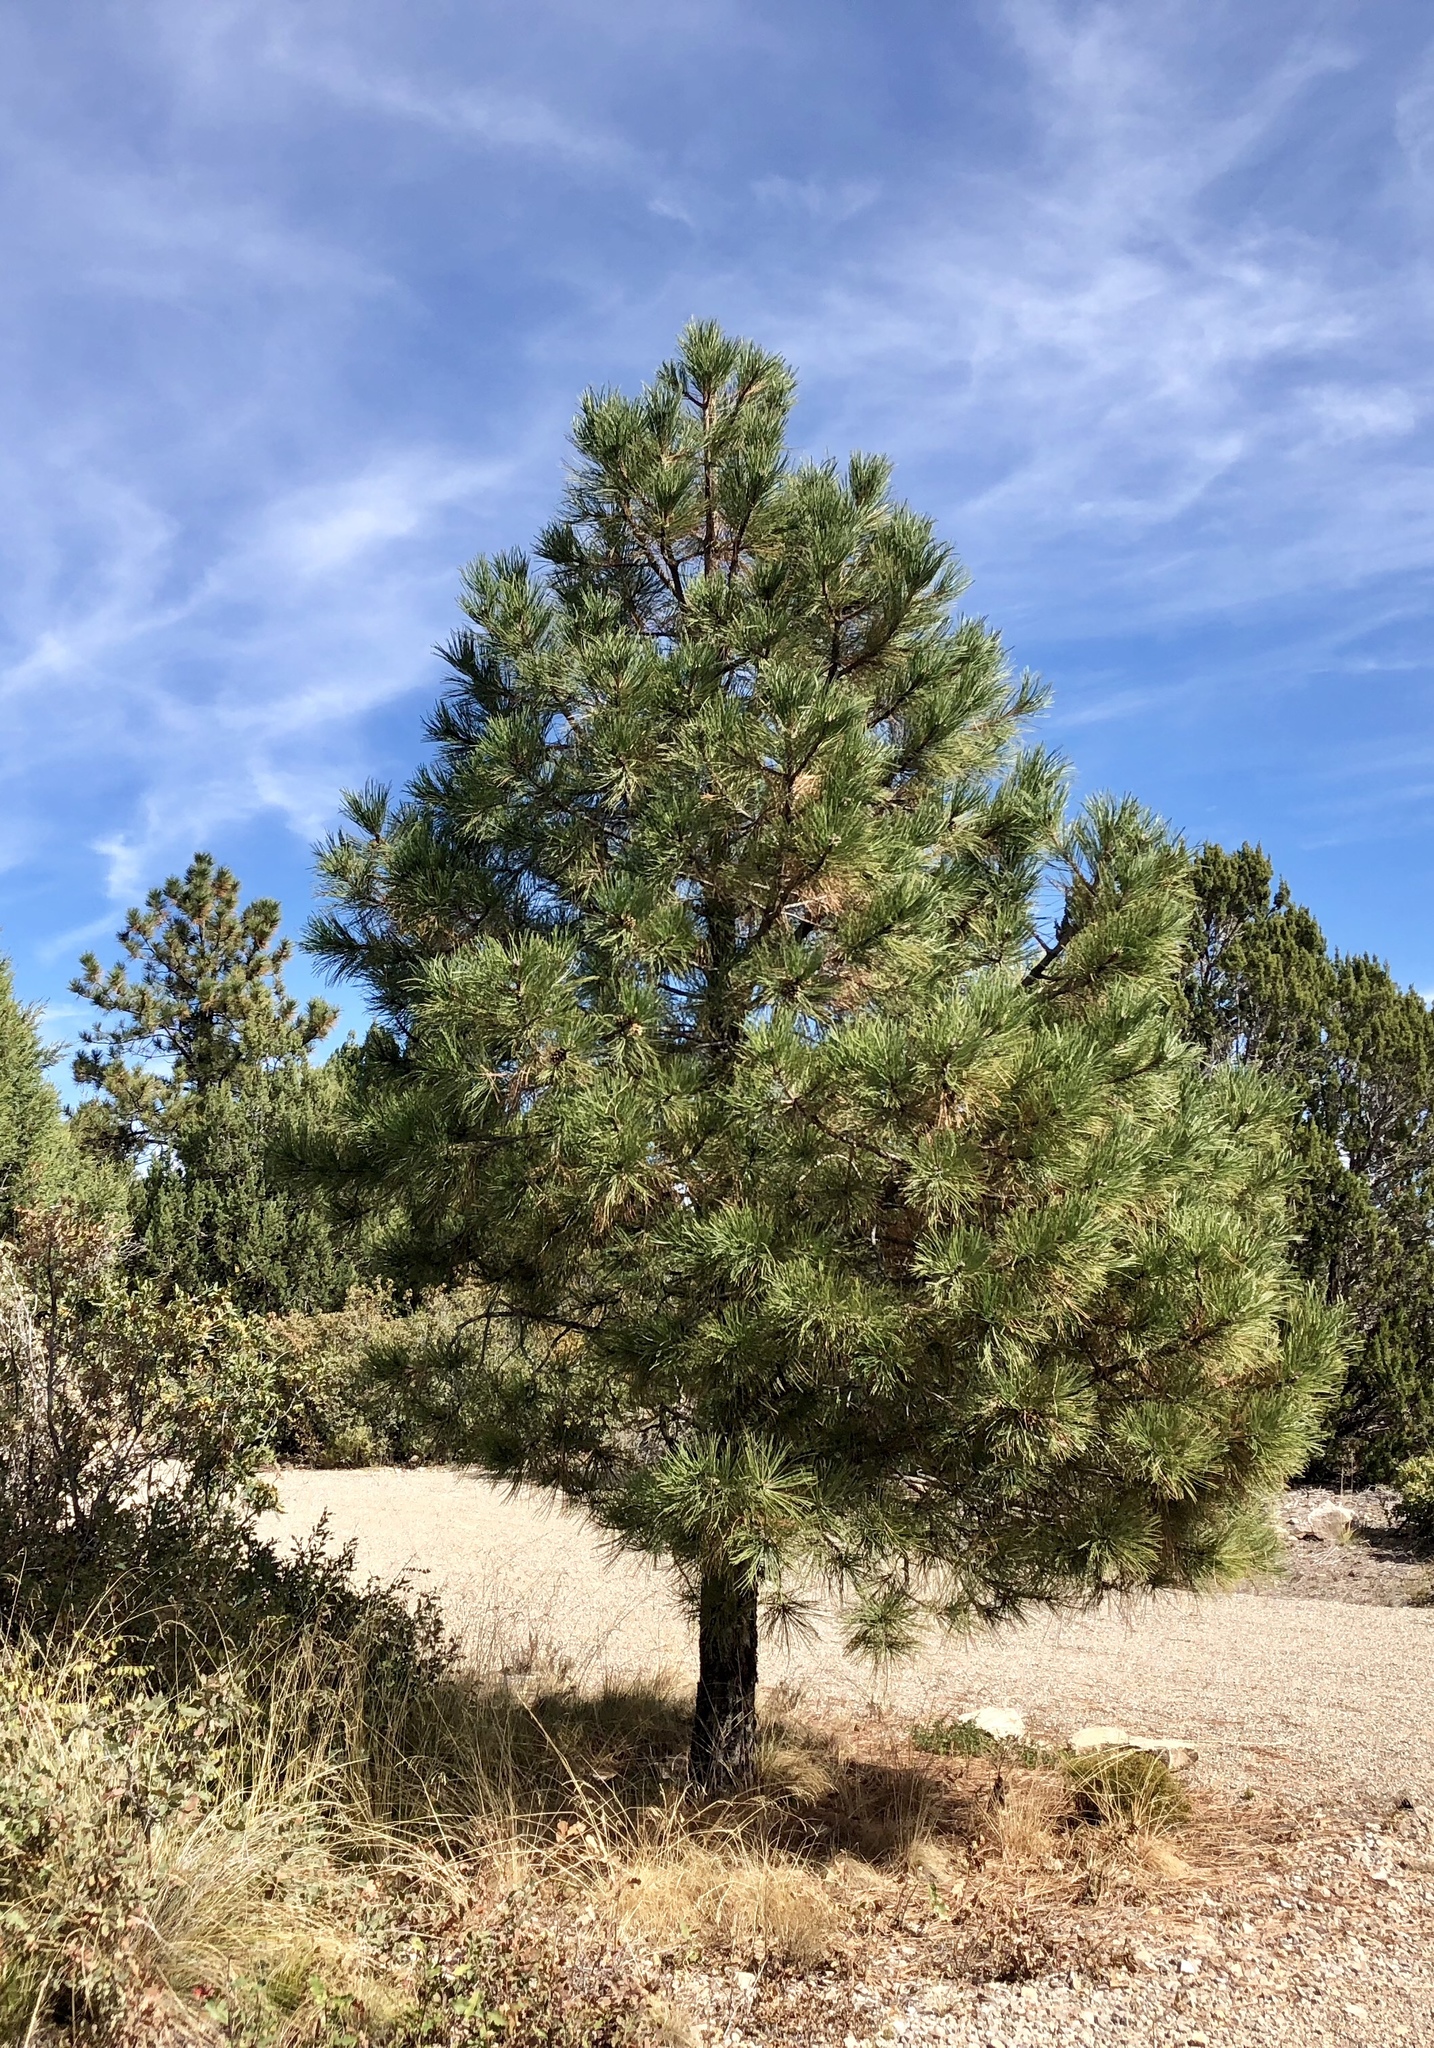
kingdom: Plantae
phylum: Tracheophyta
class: Pinopsida
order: Pinales
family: Pinaceae
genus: Pinus
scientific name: Pinus ponderosa
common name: Western yellow-pine
